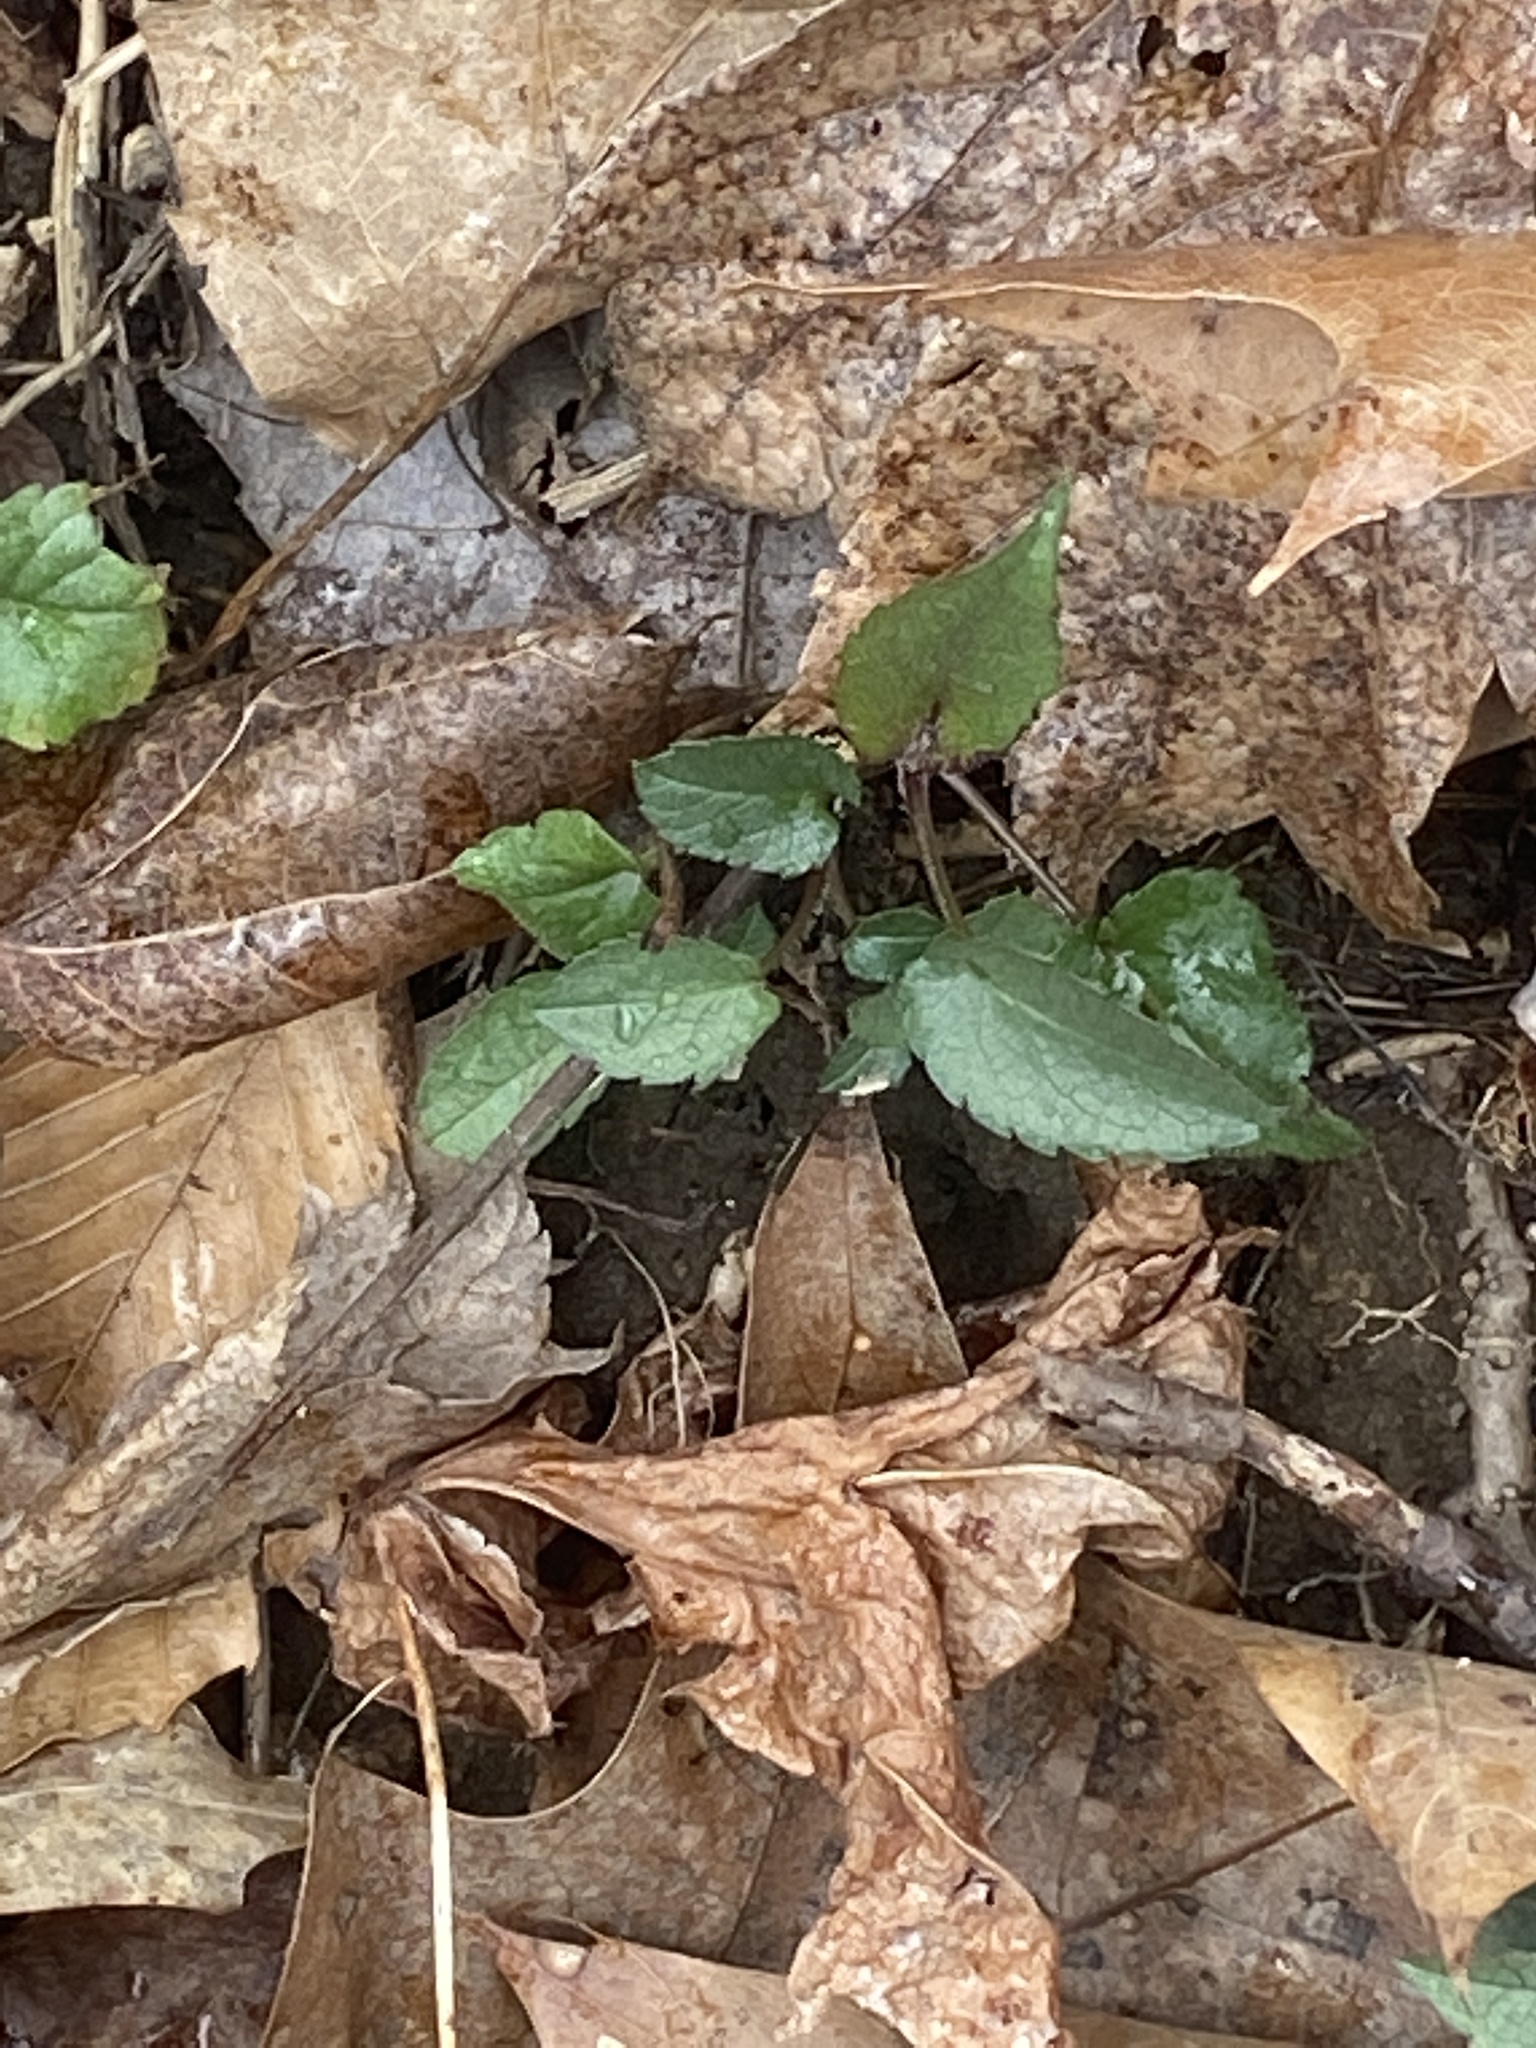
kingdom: Plantae
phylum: Tracheophyta
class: Magnoliopsida
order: Asterales
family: Asteraceae
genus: Eurybia
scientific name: Eurybia divaricata
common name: White wood aster
